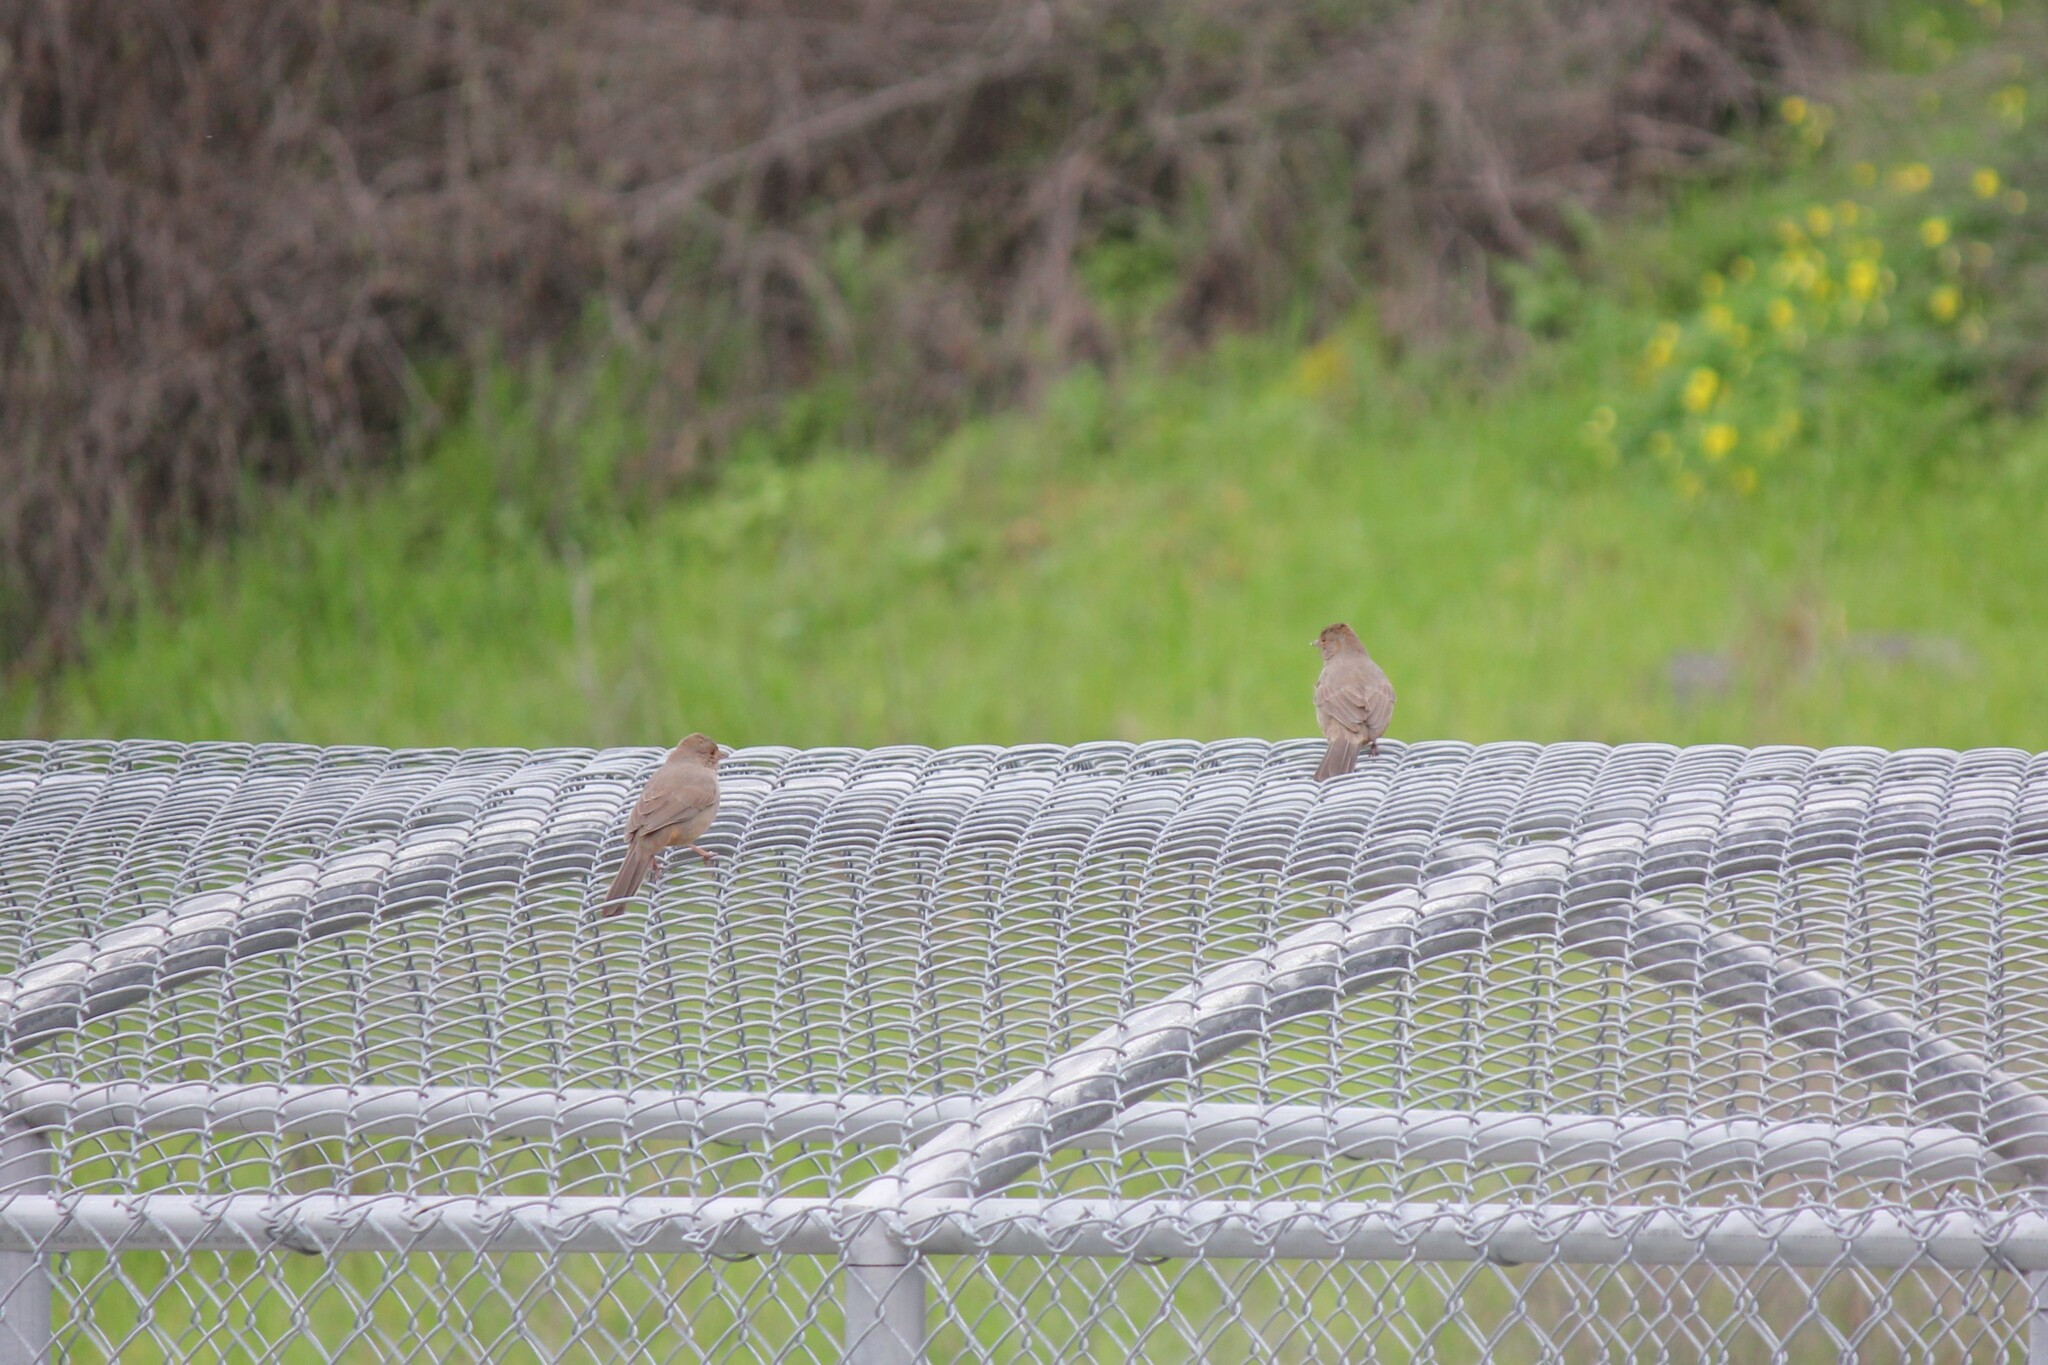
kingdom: Animalia
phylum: Chordata
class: Aves
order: Passeriformes
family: Passerellidae
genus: Melozone
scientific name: Melozone crissalis
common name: California towhee
